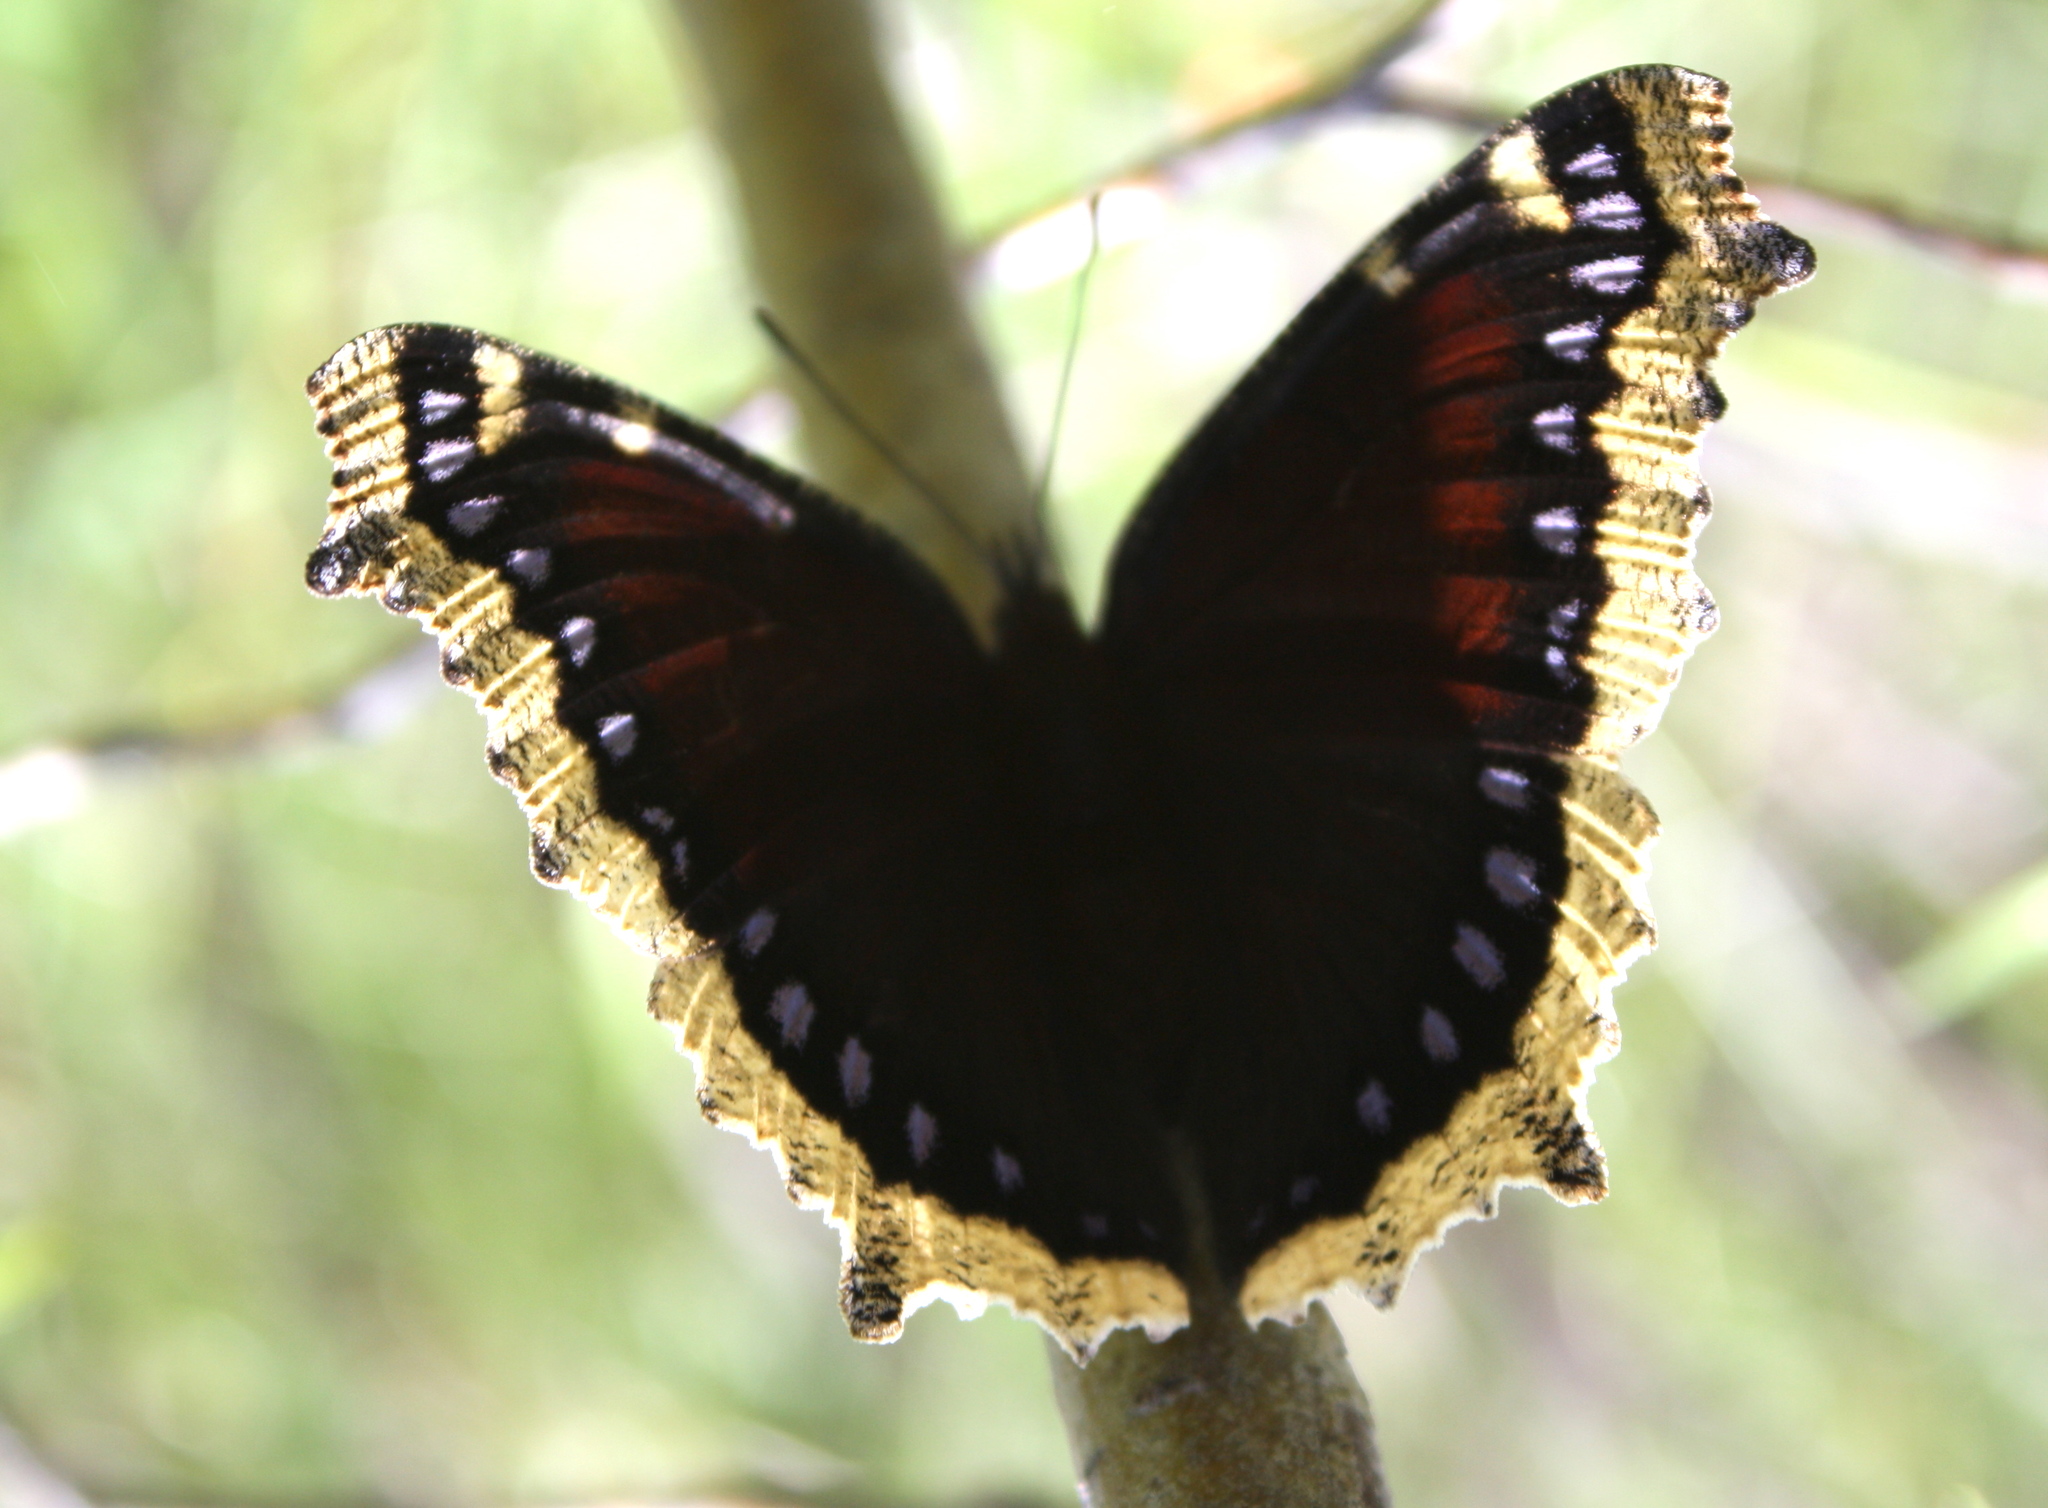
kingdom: Animalia
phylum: Arthropoda
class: Insecta
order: Lepidoptera
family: Nymphalidae
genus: Nymphalis
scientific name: Nymphalis antiopa
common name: Camberwell beauty
